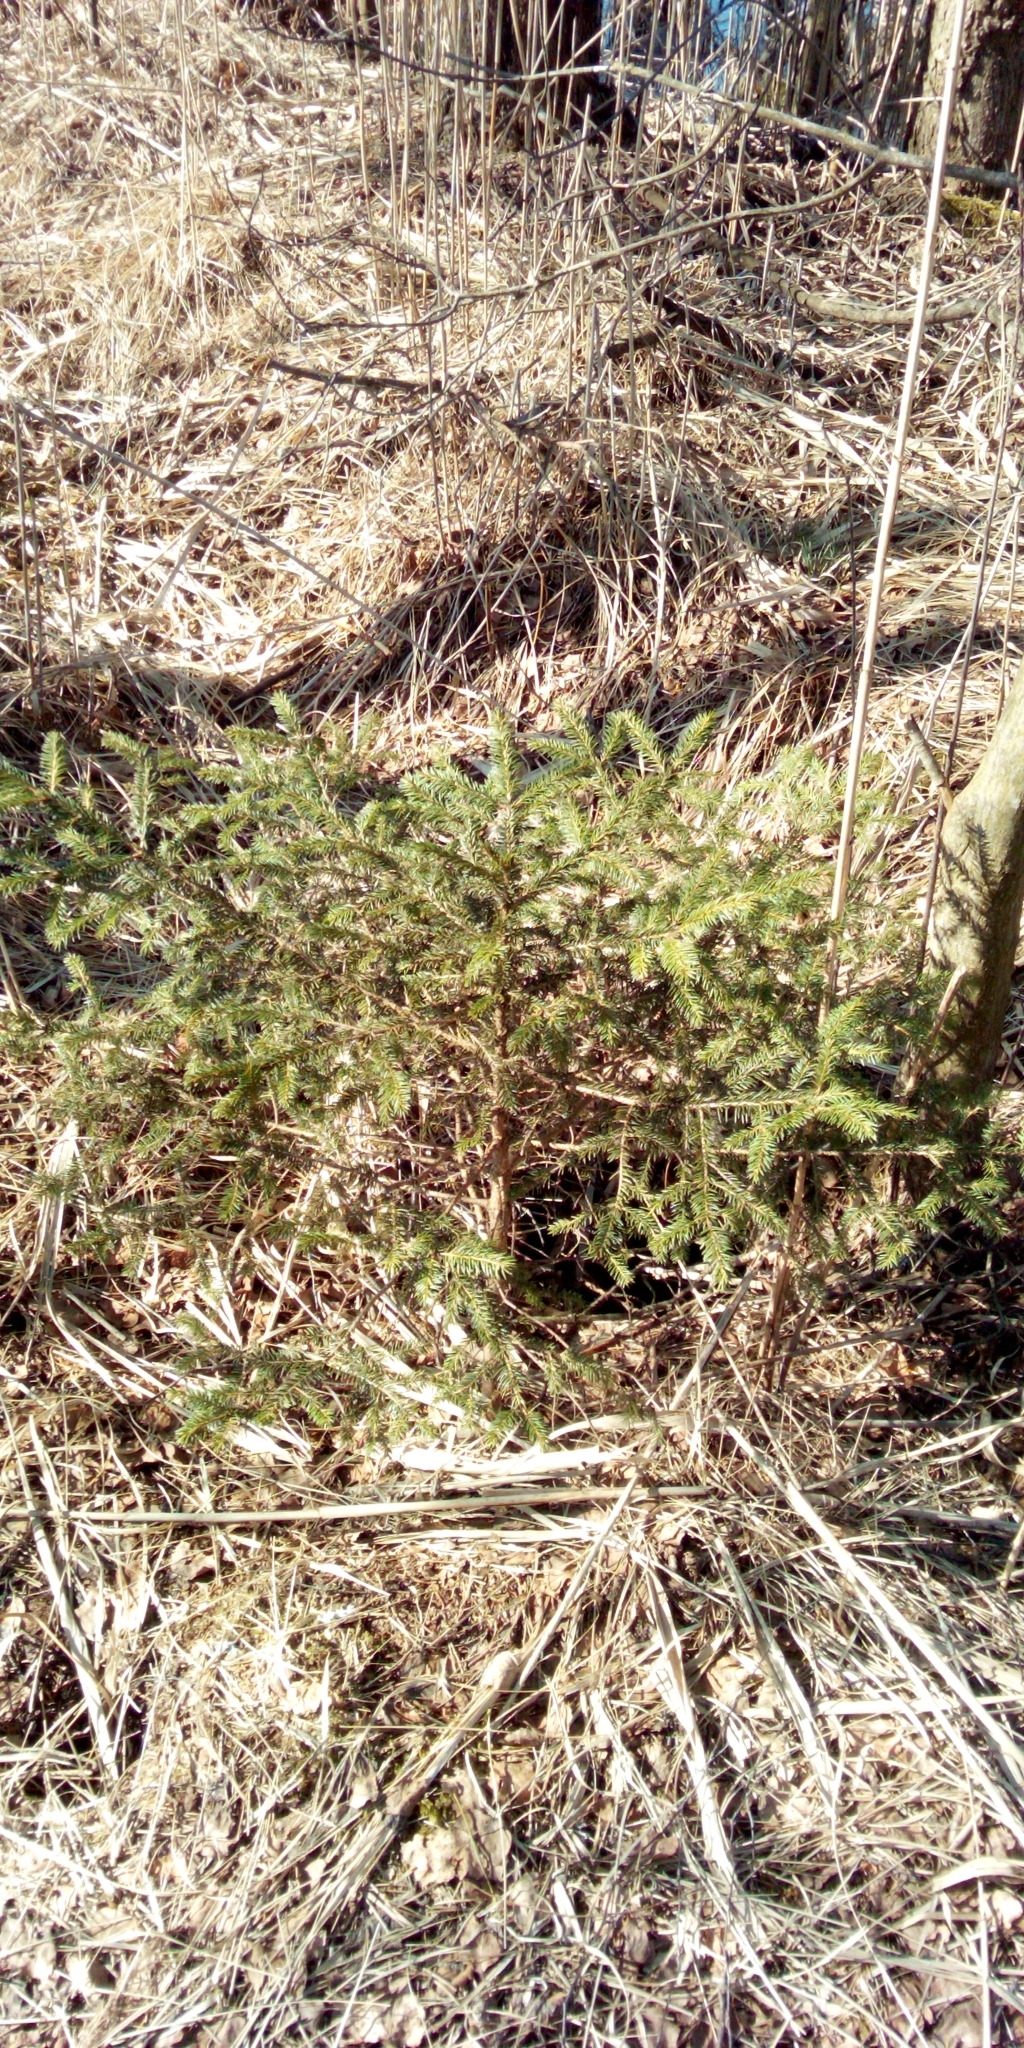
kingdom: Plantae
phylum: Tracheophyta
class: Pinopsida
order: Pinales
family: Pinaceae
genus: Picea
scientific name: Picea abies
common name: Norway spruce
